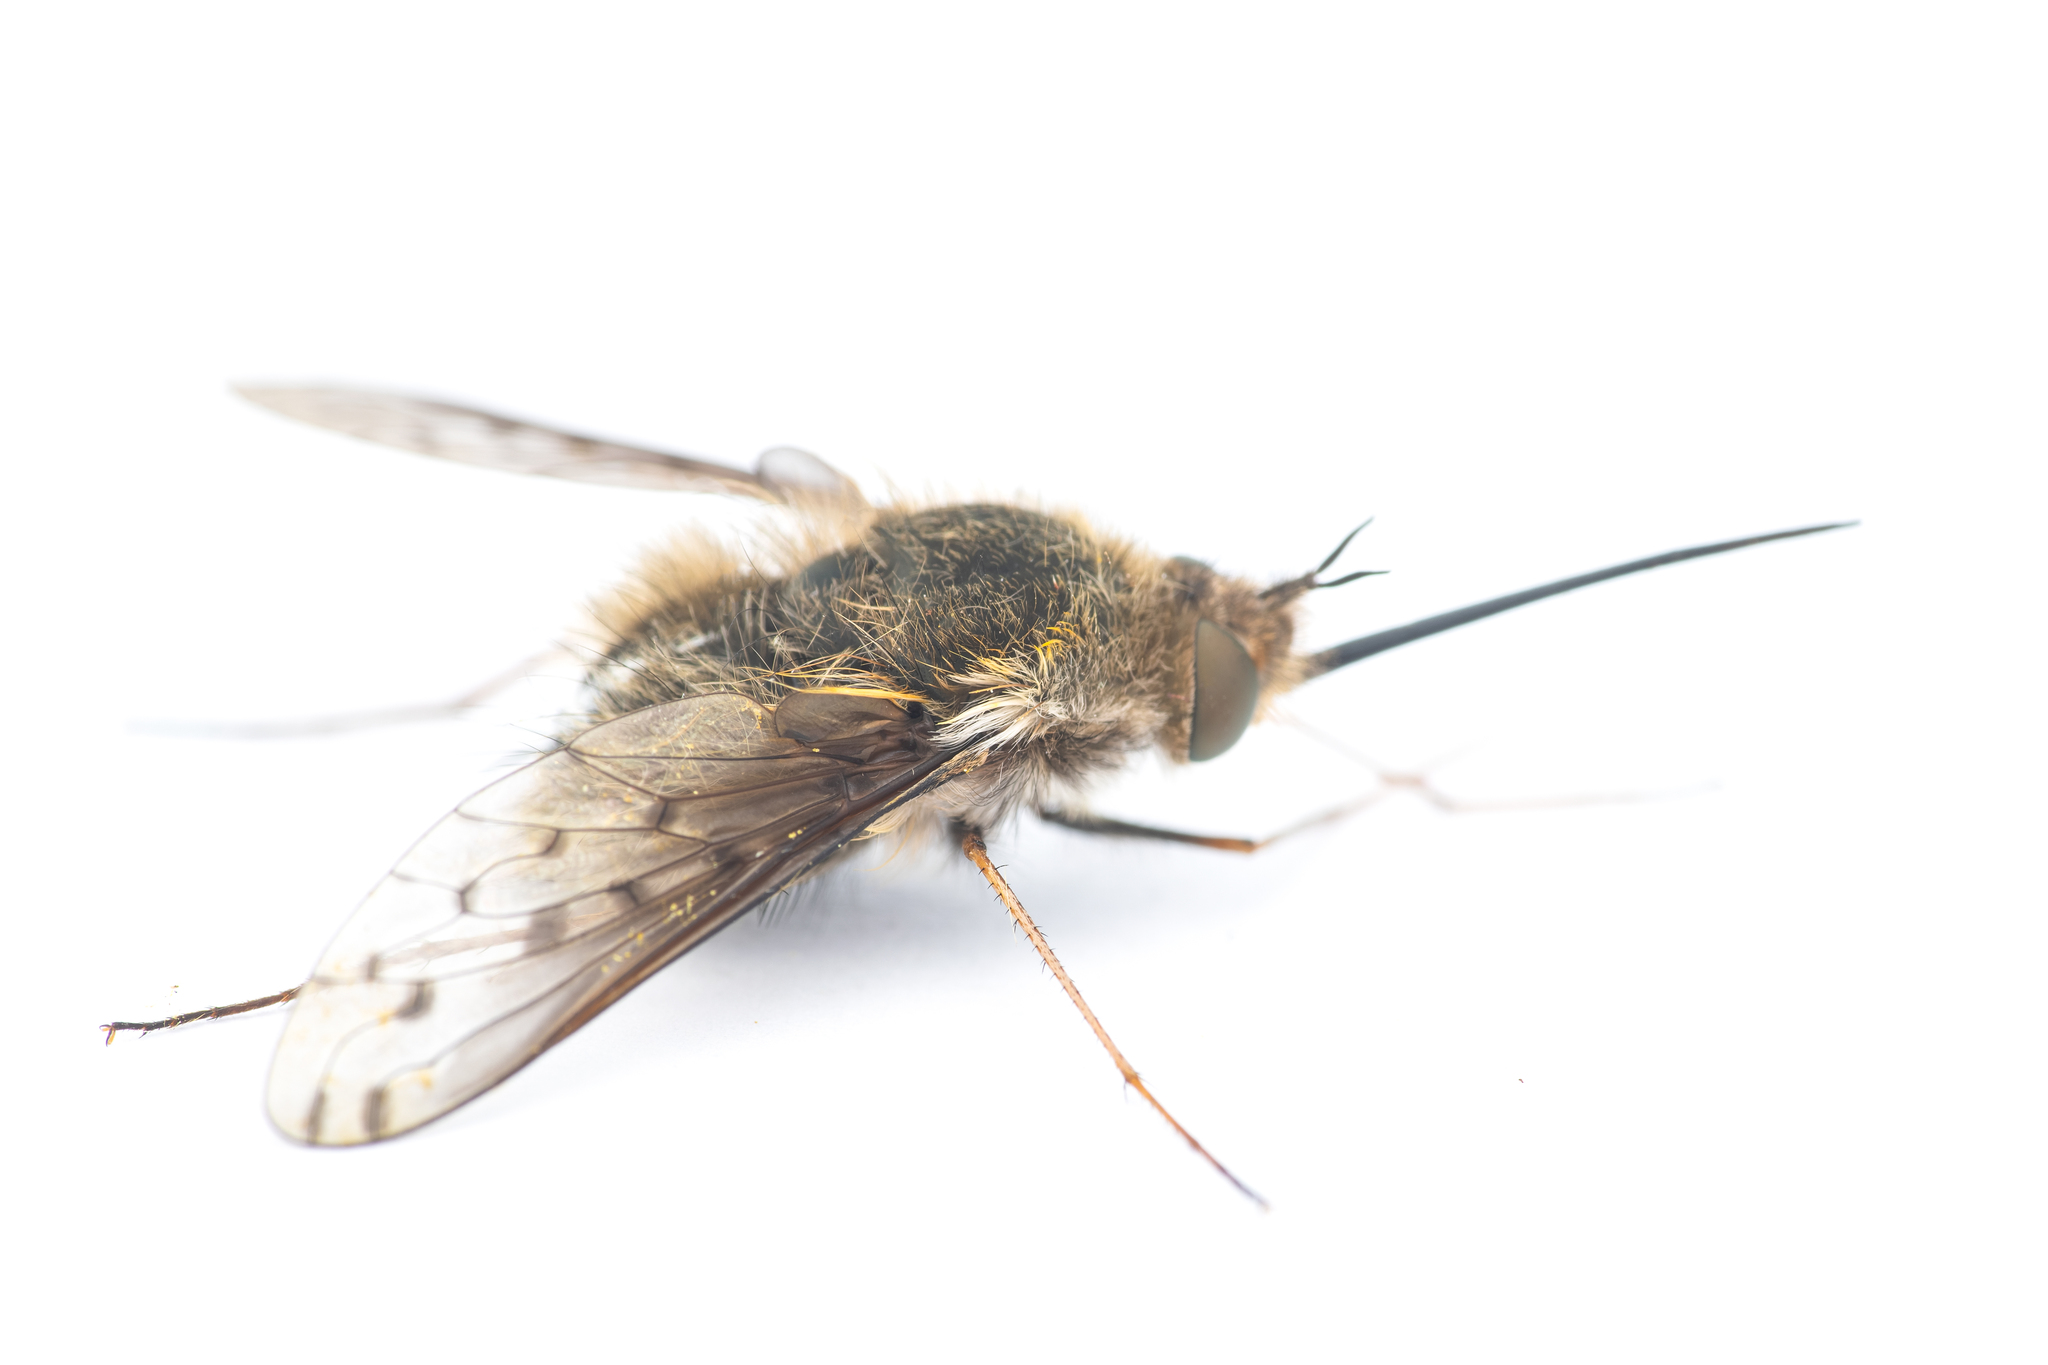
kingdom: Animalia
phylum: Arthropoda
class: Insecta
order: Diptera
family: Bombyliidae
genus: Bombylius
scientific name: Bombylius medius
